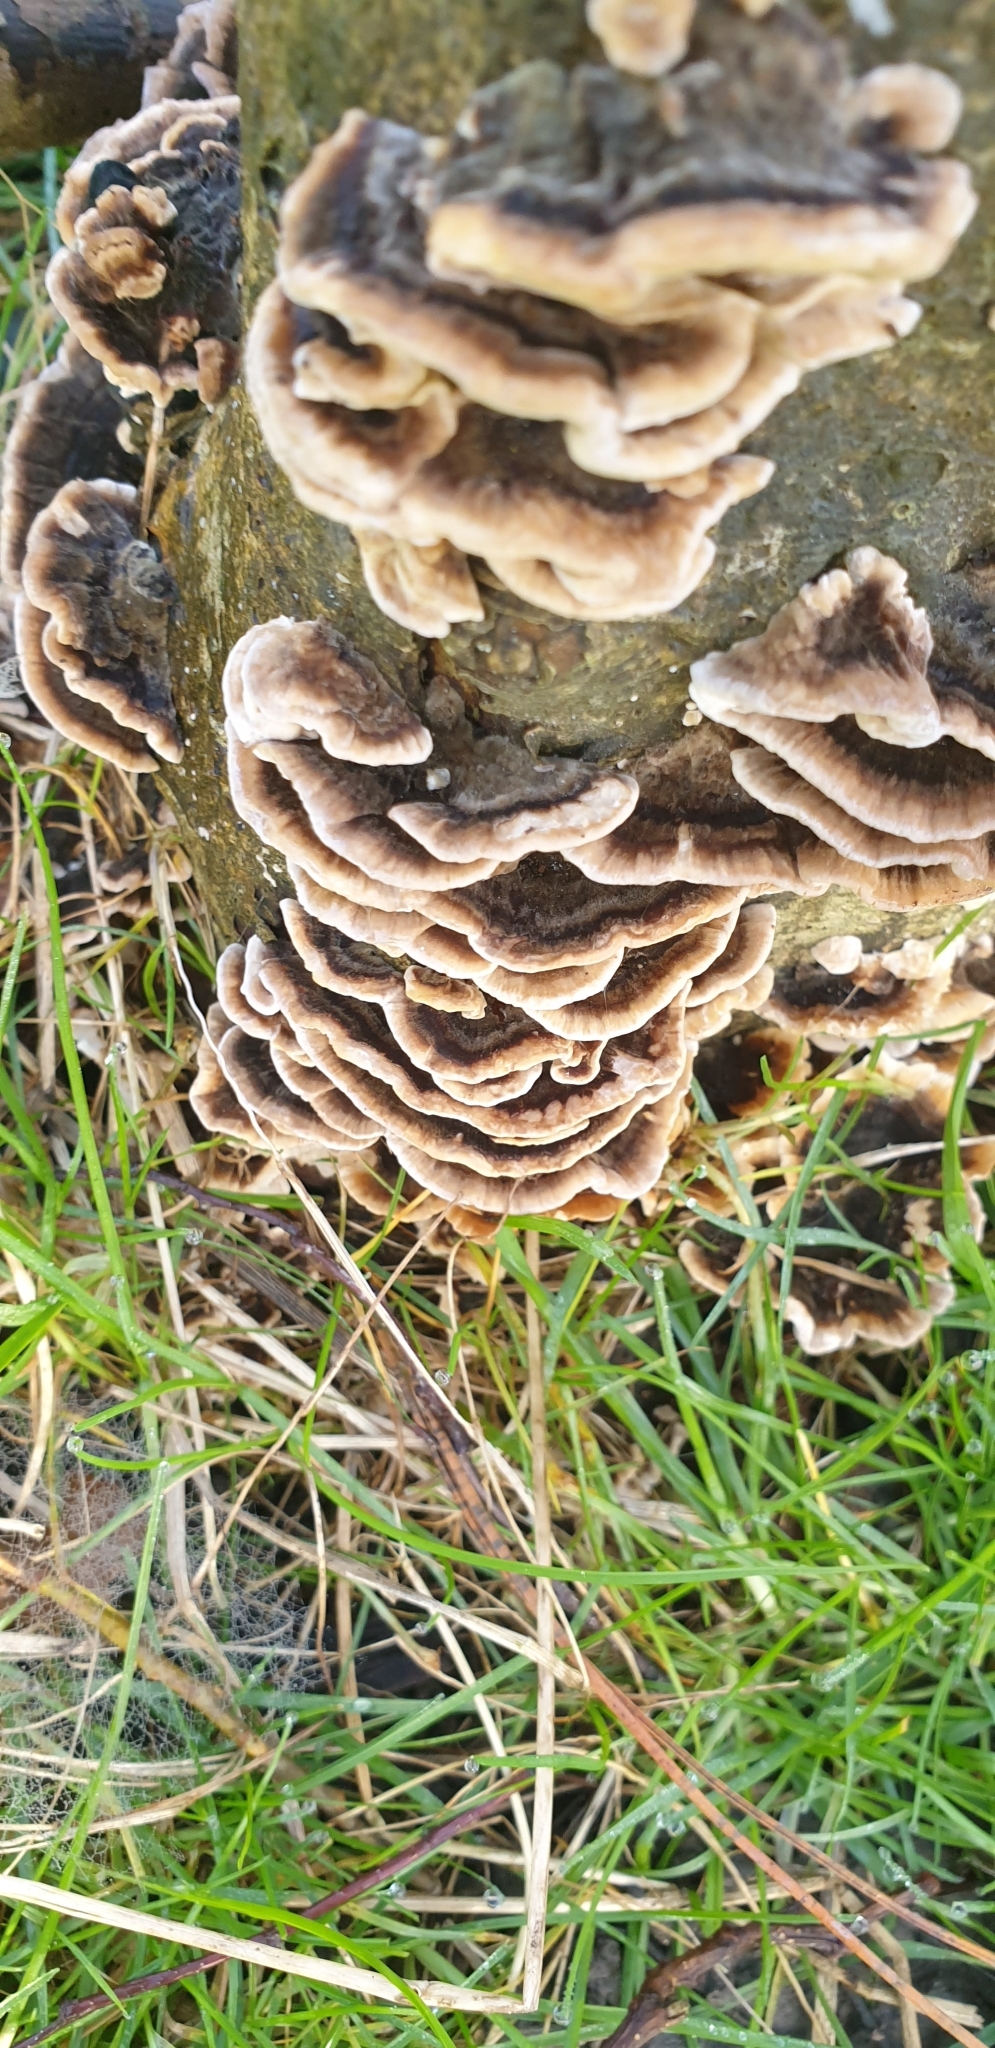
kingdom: Fungi
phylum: Basidiomycota
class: Agaricomycetes
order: Polyporales
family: Polyporaceae
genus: Trametes
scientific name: Trametes versicolor
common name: Turkeytail
